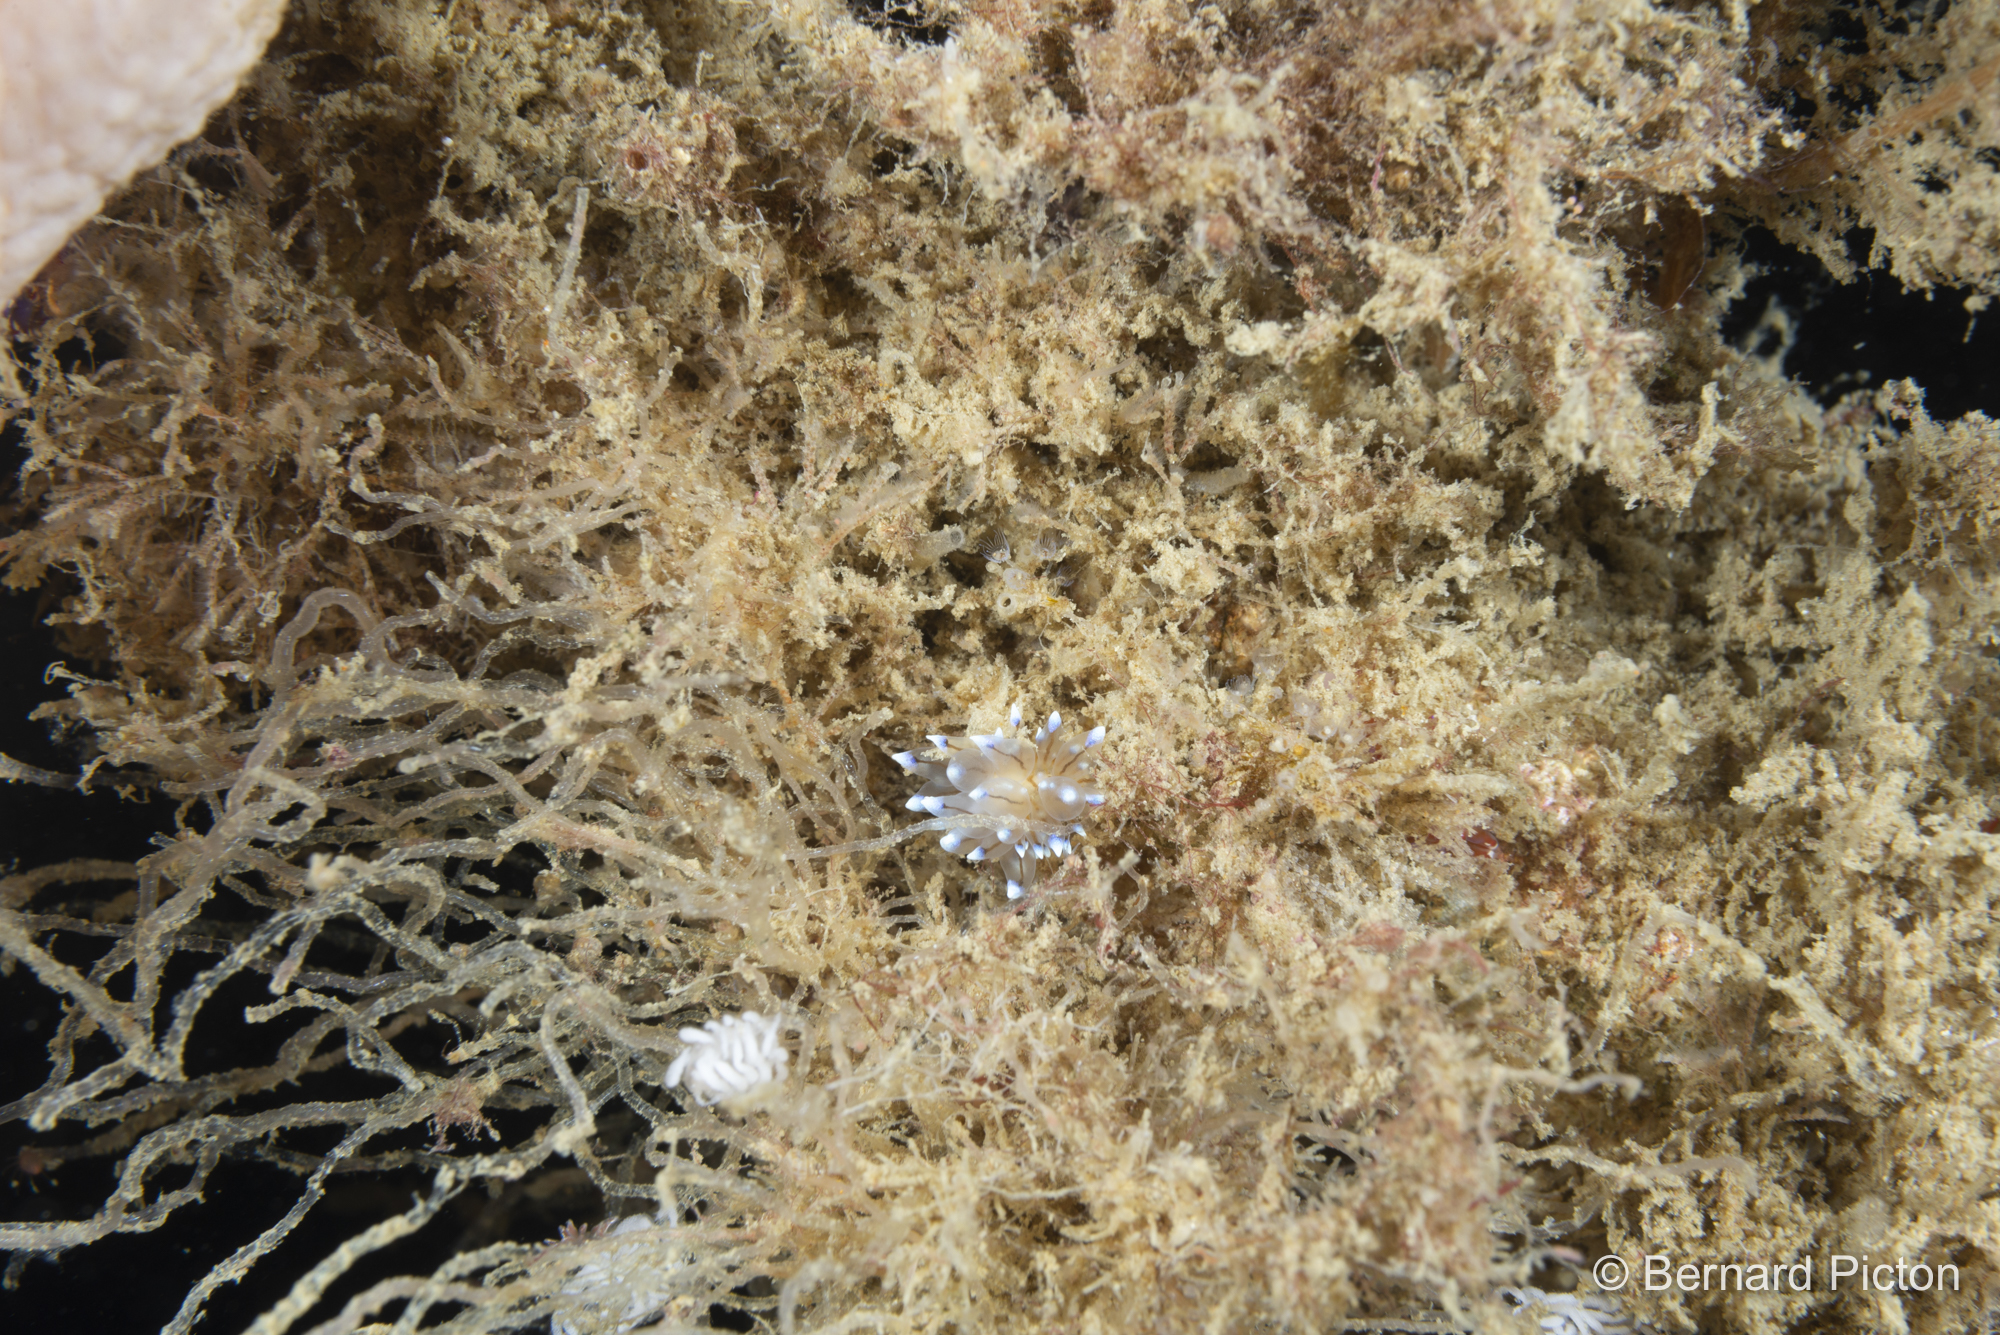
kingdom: Animalia
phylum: Mollusca
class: Gastropoda
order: Nudibranchia
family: Janolidae
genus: Antiopella
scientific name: Antiopella cristata
